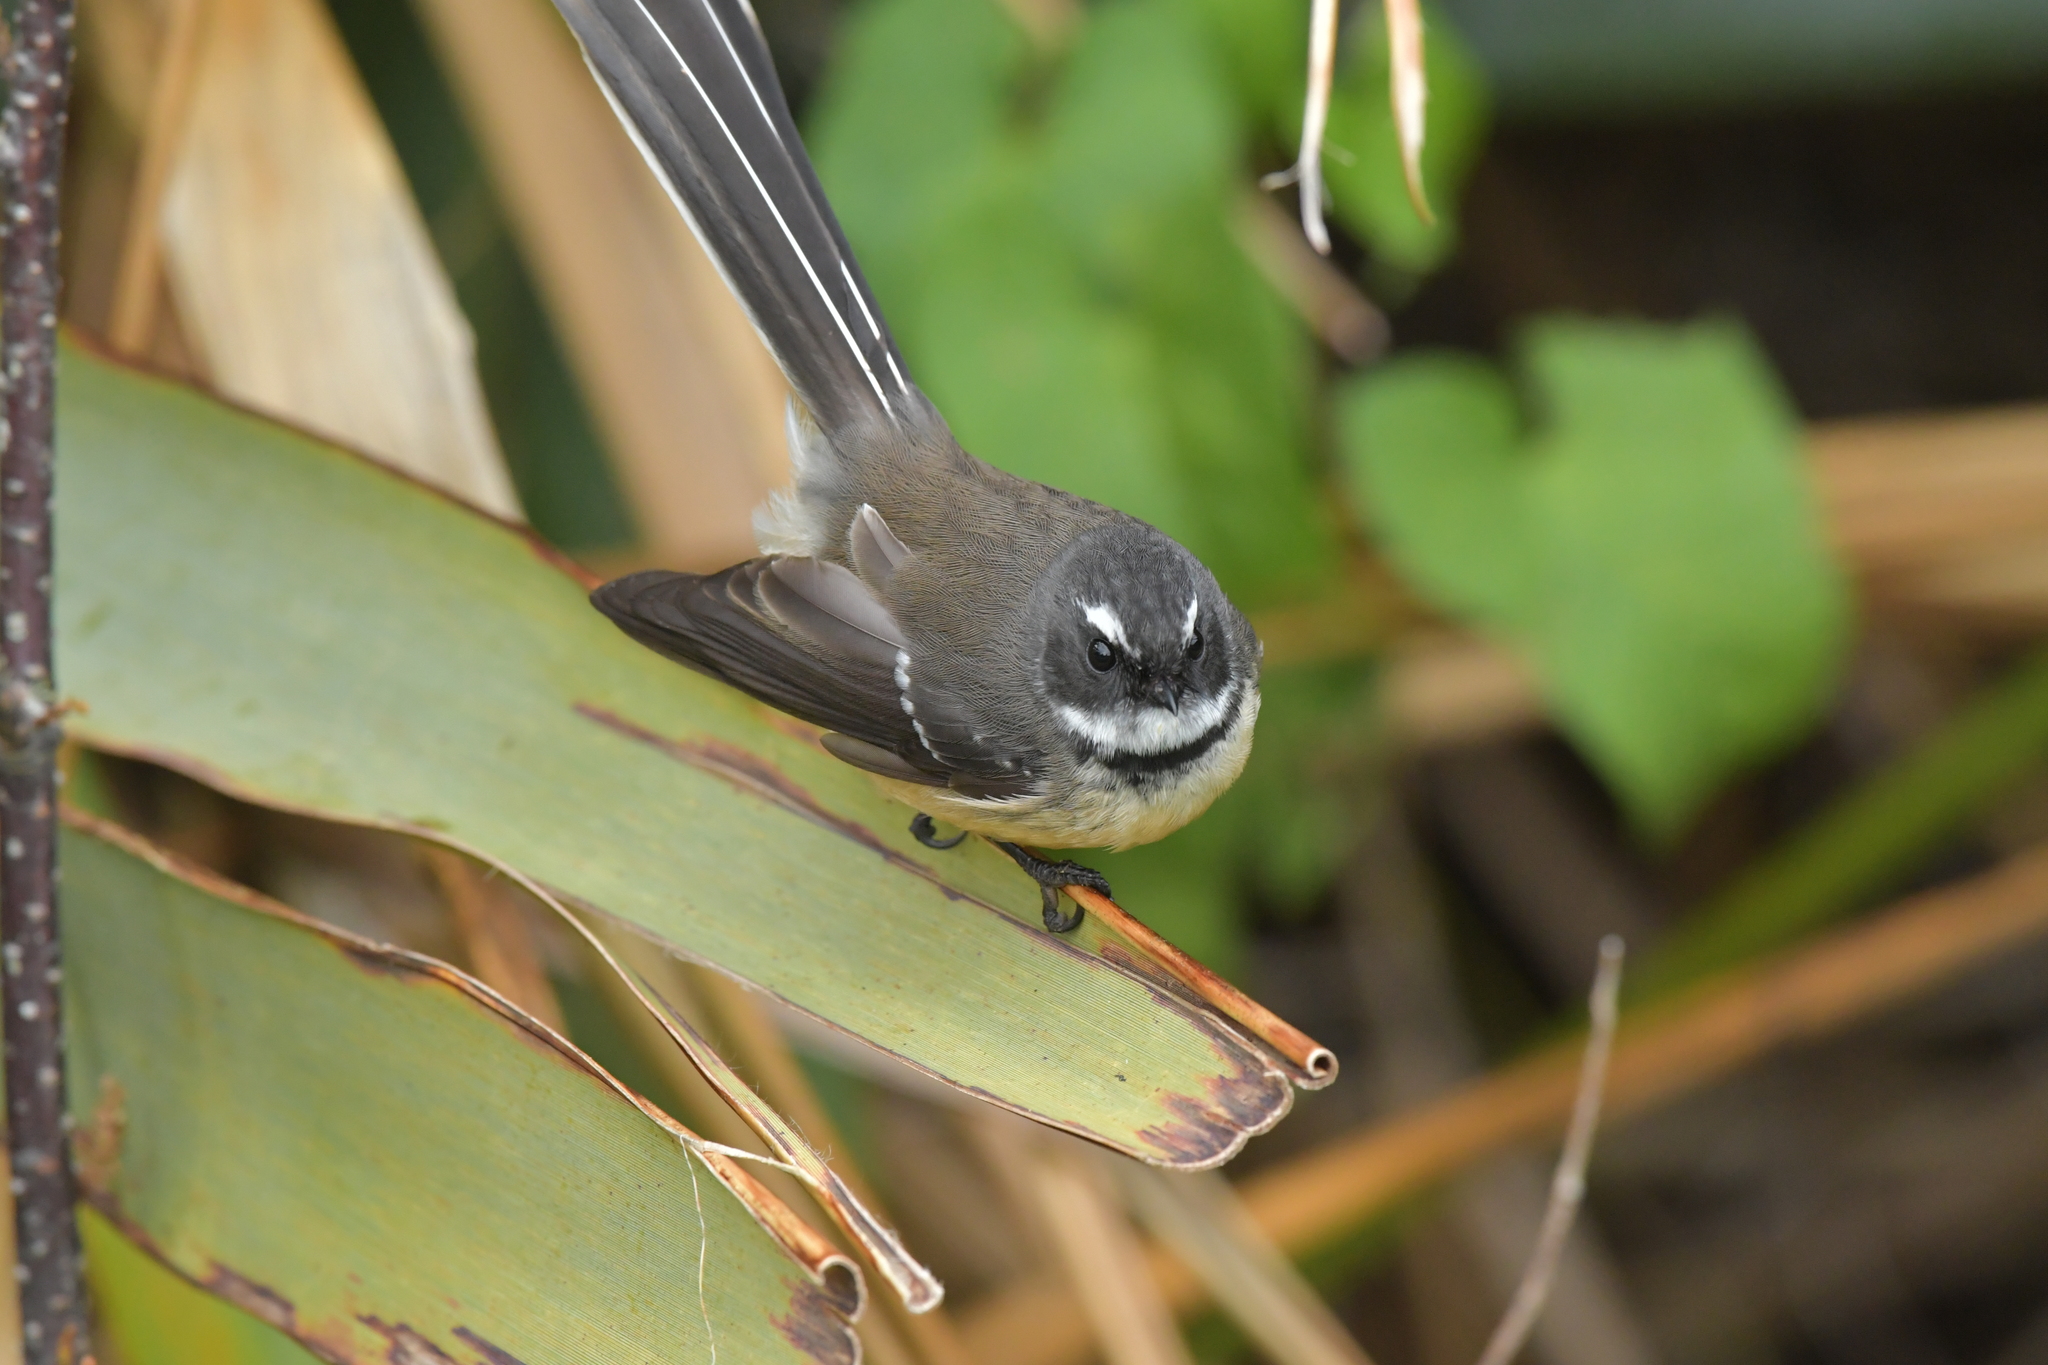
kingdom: Animalia
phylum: Chordata
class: Aves
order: Passeriformes
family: Rhipiduridae
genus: Rhipidura
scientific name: Rhipidura fuliginosa
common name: New zealand fantail
